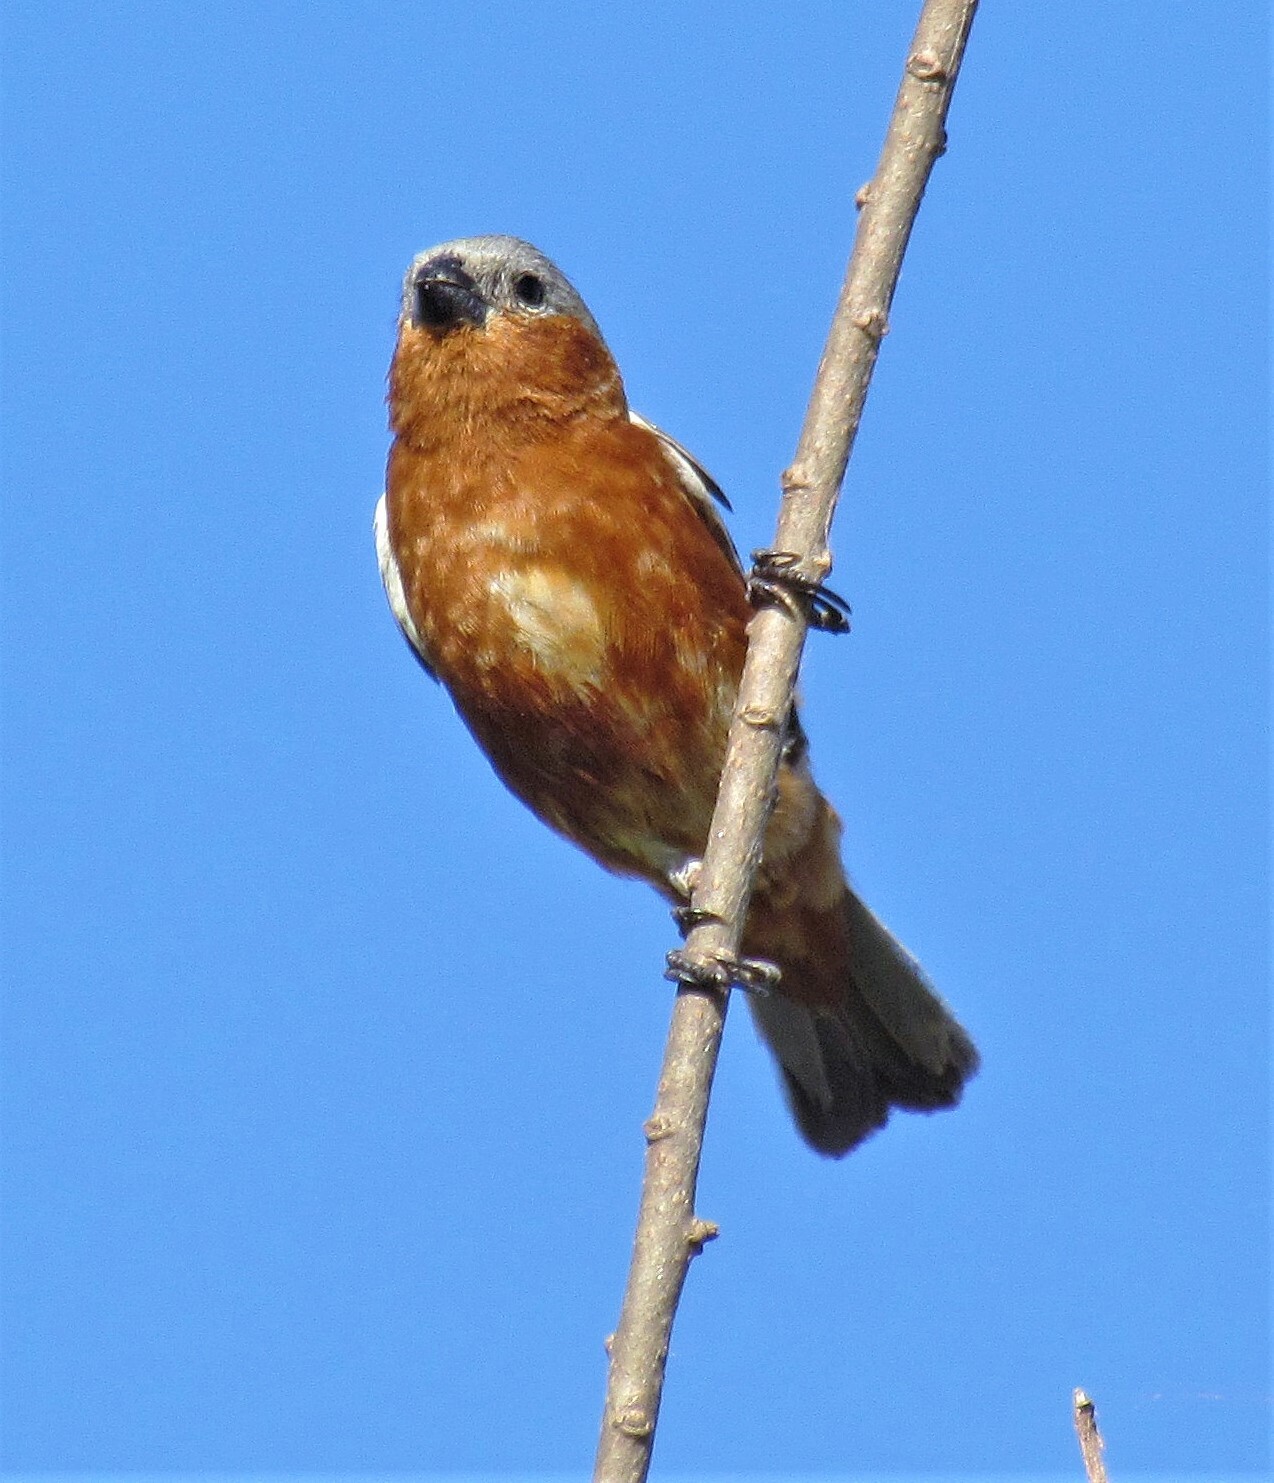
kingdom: Animalia
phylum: Chordata
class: Aves
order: Passeriformes
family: Thraupidae
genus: Sporophila
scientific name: Sporophila hypoxantha
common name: Tawny-bellied seedeater
